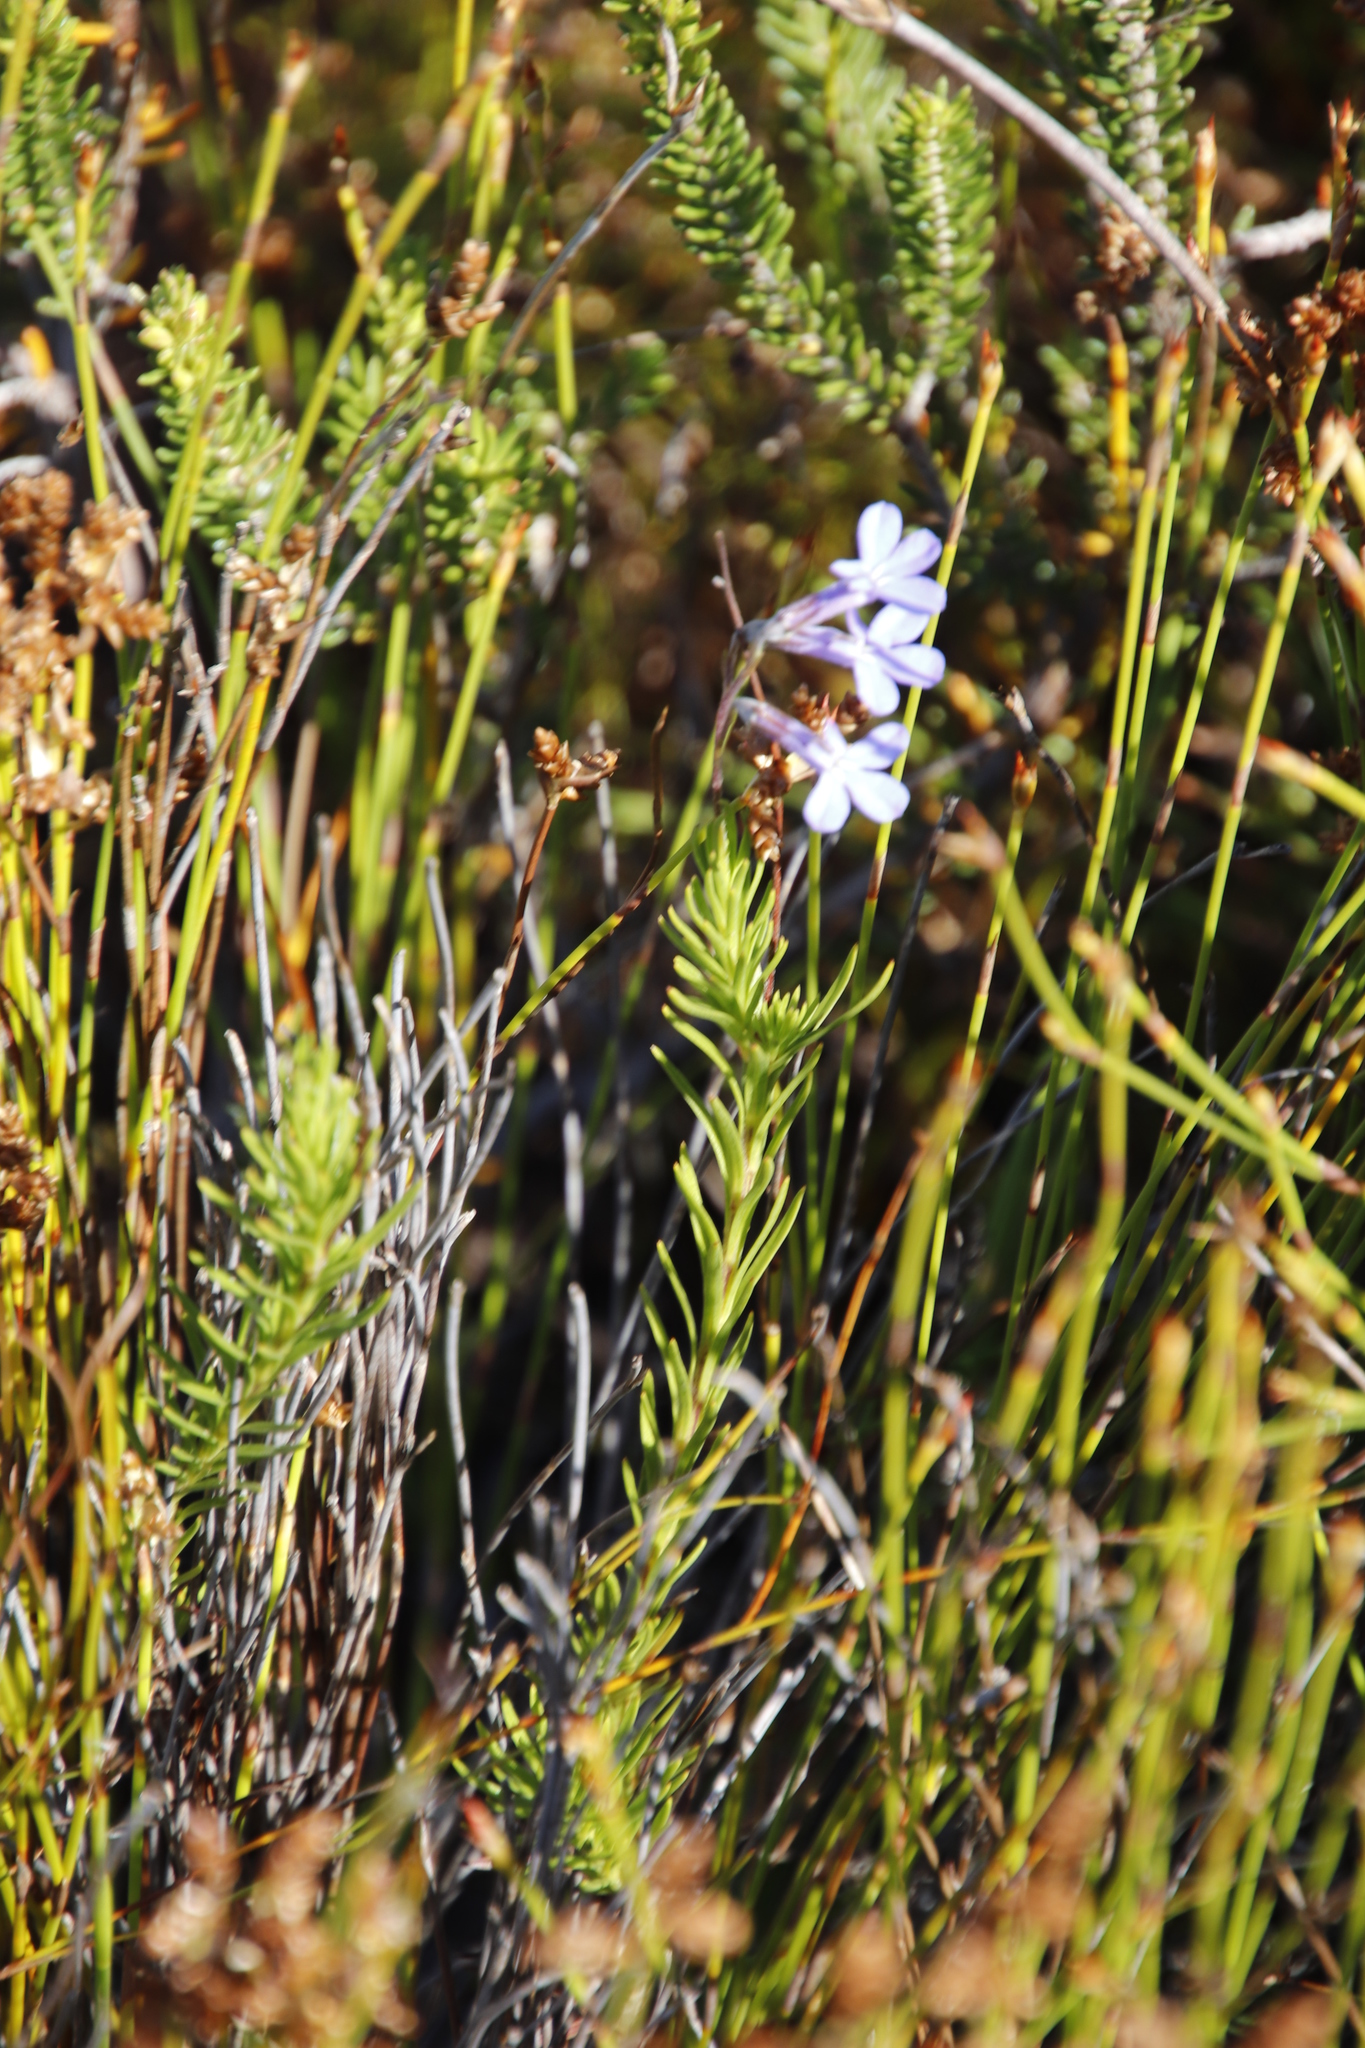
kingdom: Plantae
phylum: Tracheophyta
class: Magnoliopsida
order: Asterales
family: Campanulaceae
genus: Lobelia
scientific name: Lobelia pinifolia
